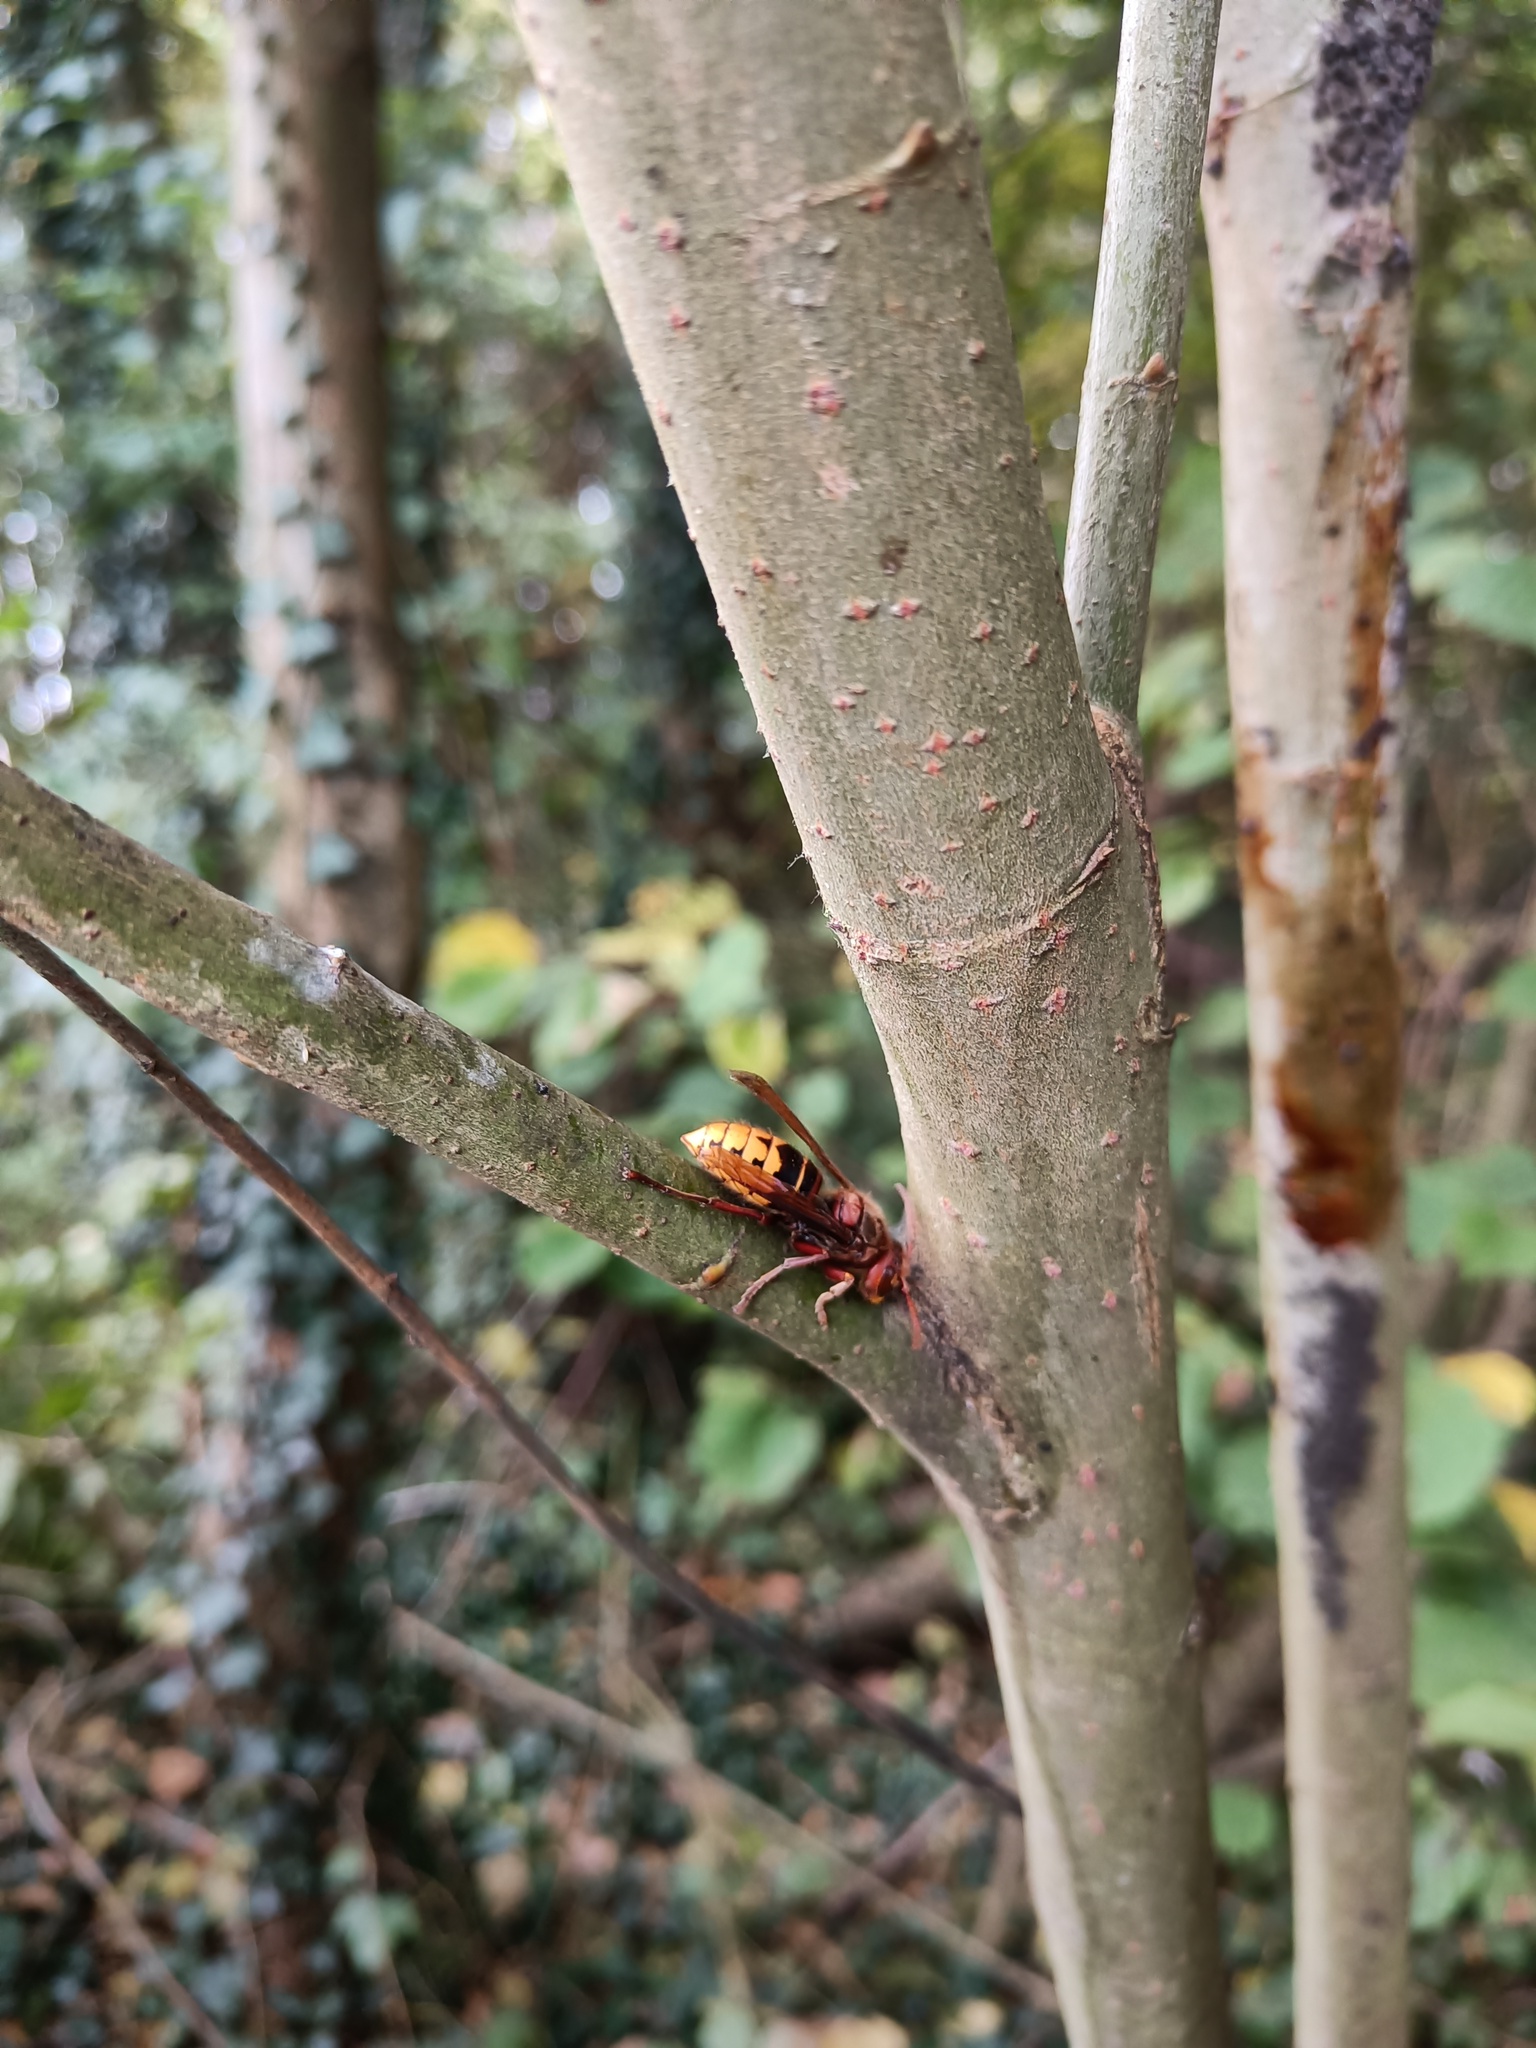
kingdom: Animalia
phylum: Arthropoda
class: Insecta
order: Hymenoptera
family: Vespidae
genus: Vespa
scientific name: Vespa crabro
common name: Hornet
